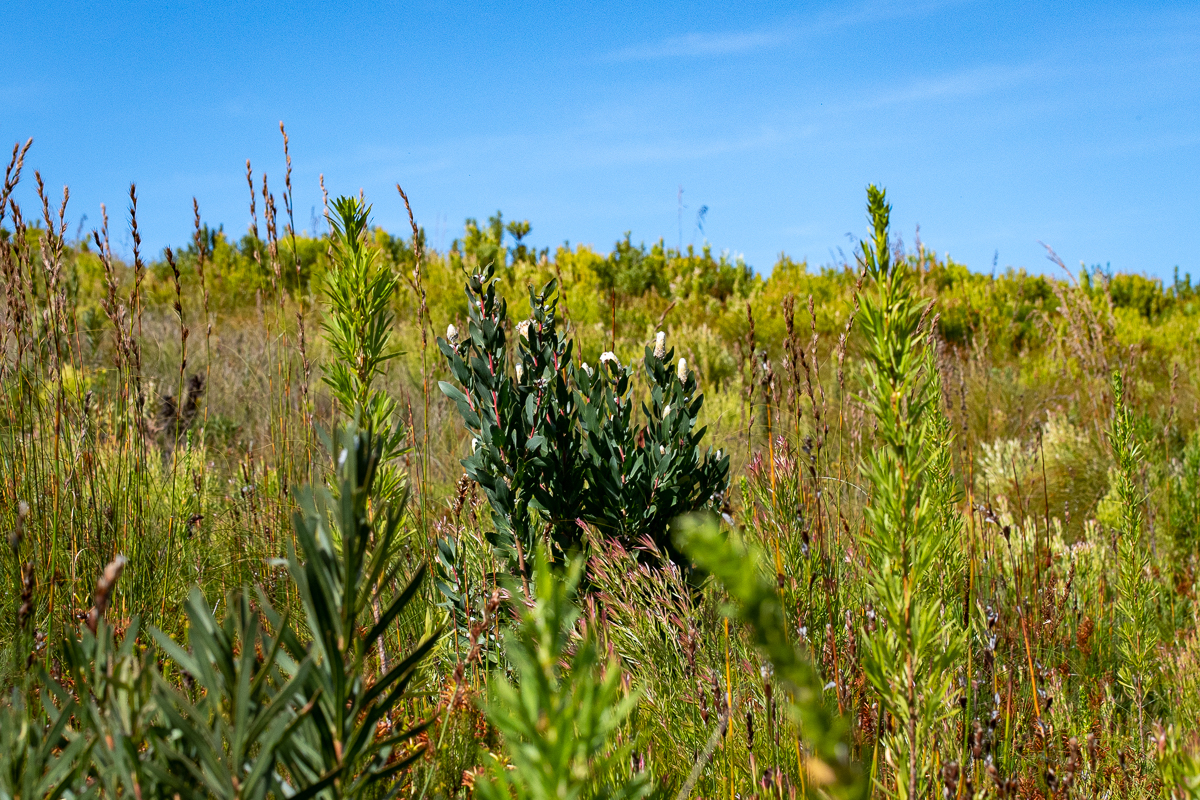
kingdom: Plantae
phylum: Tracheophyta
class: Magnoliopsida
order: Proteales
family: Proteaceae
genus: Protea
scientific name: Protea mundii
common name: Forest sugarbush
